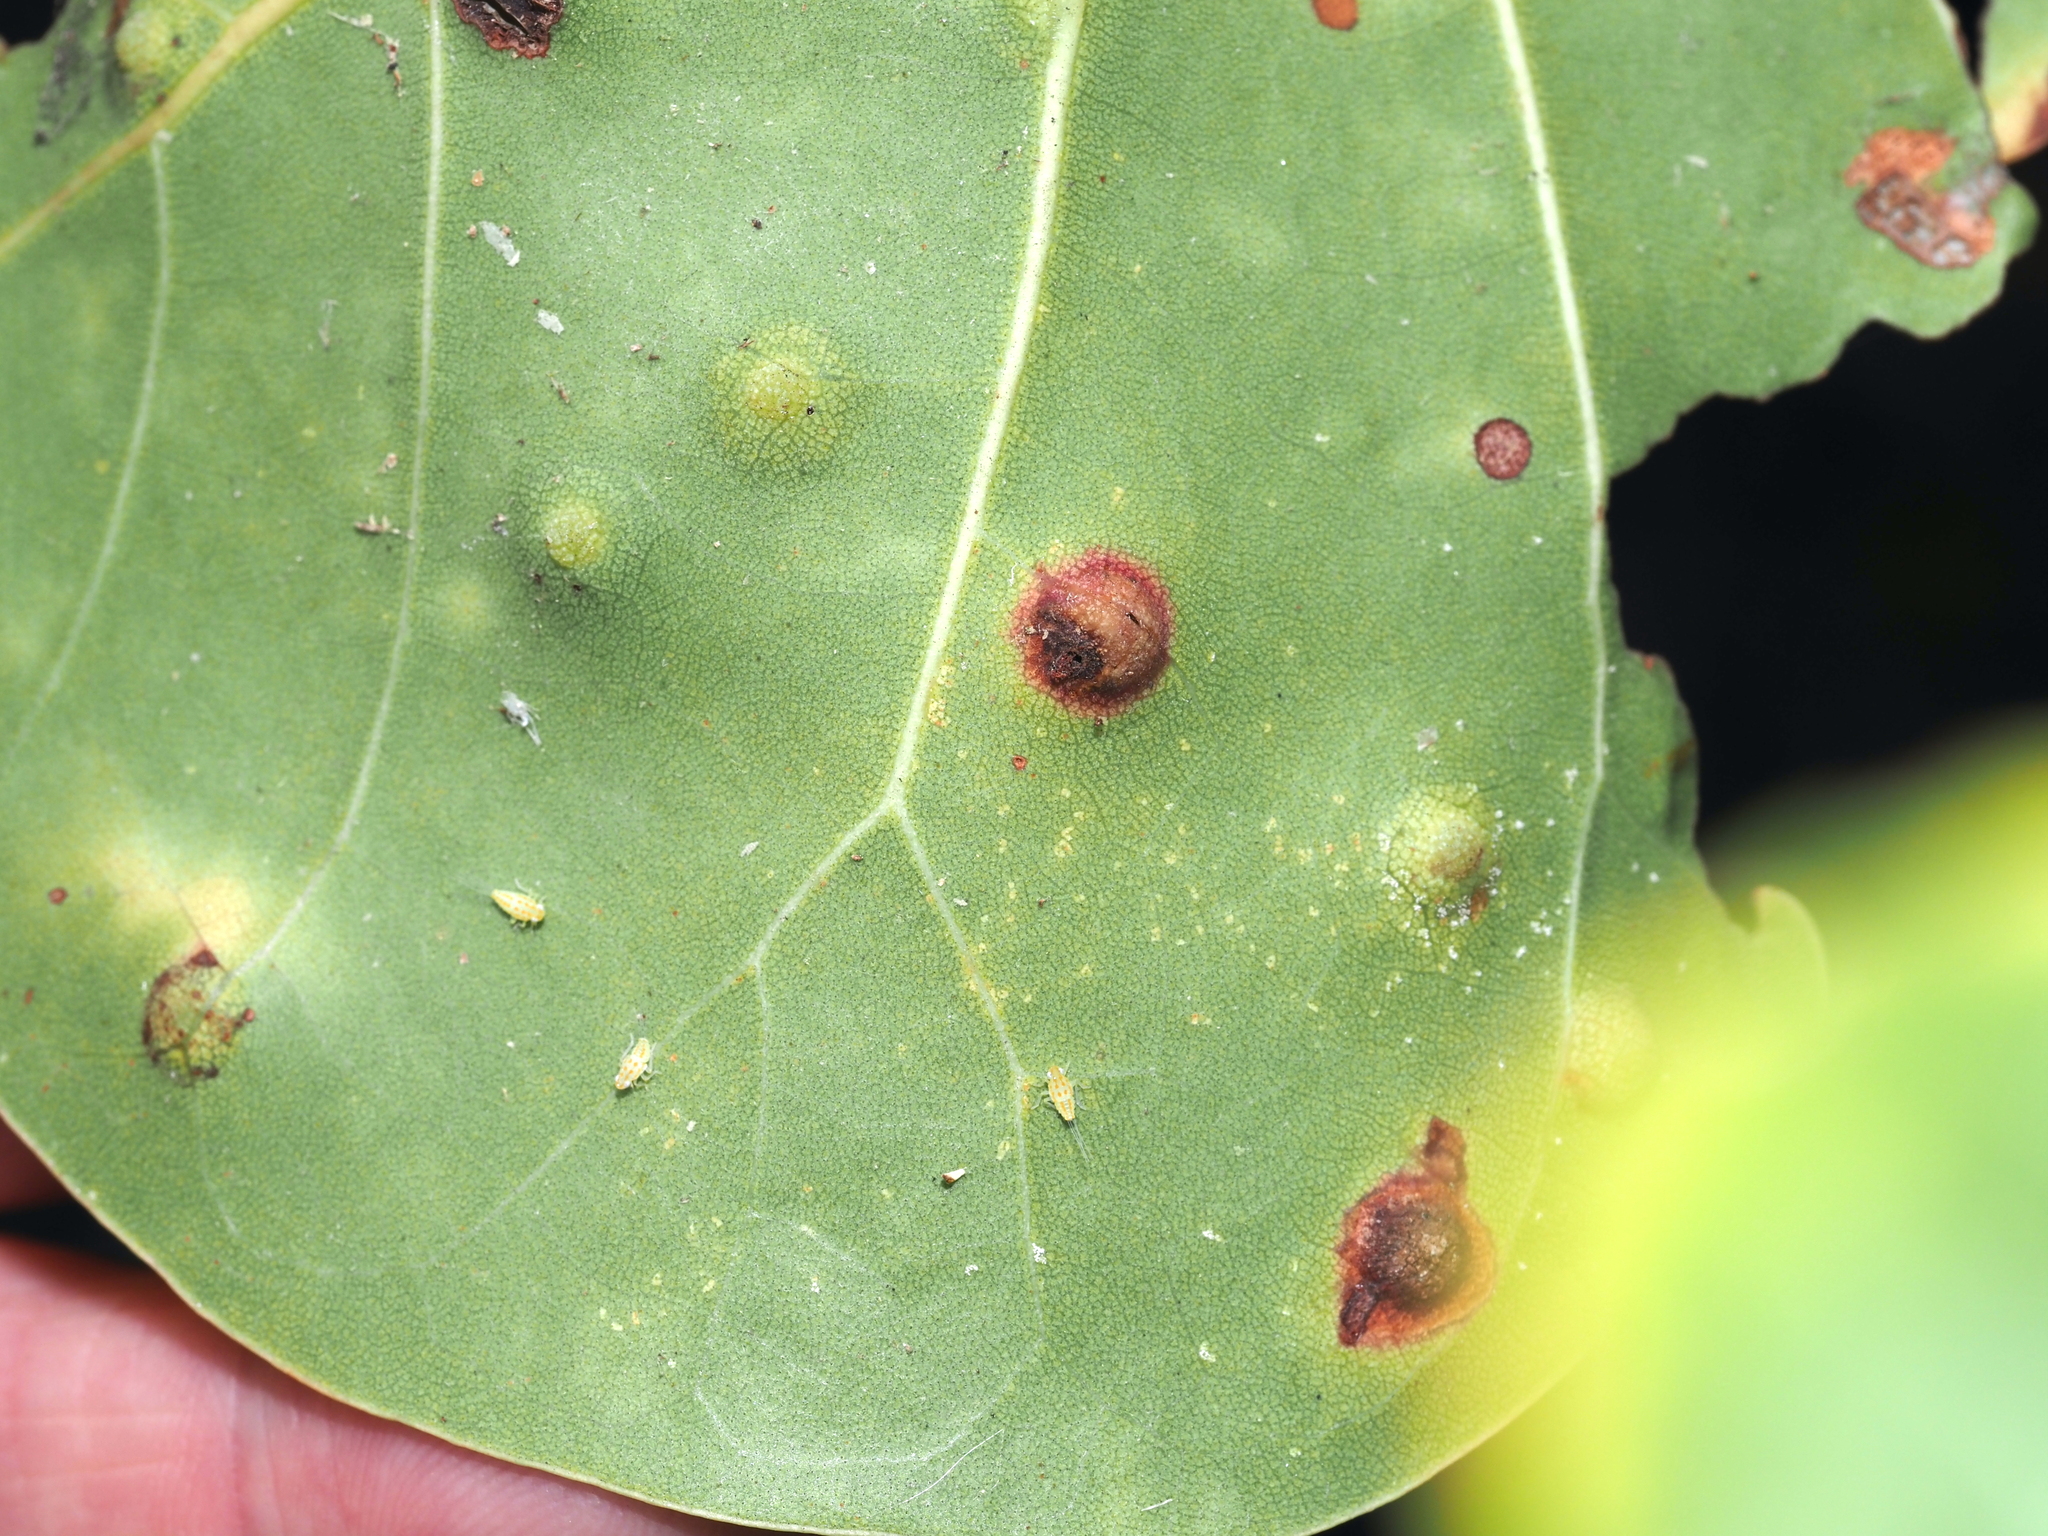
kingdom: Animalia
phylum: Arthropoda
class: Insecta
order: Diptera
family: Cecidomyiidae
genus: Ctenodactylomyia
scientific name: Ctenodactylomyia watsoni
